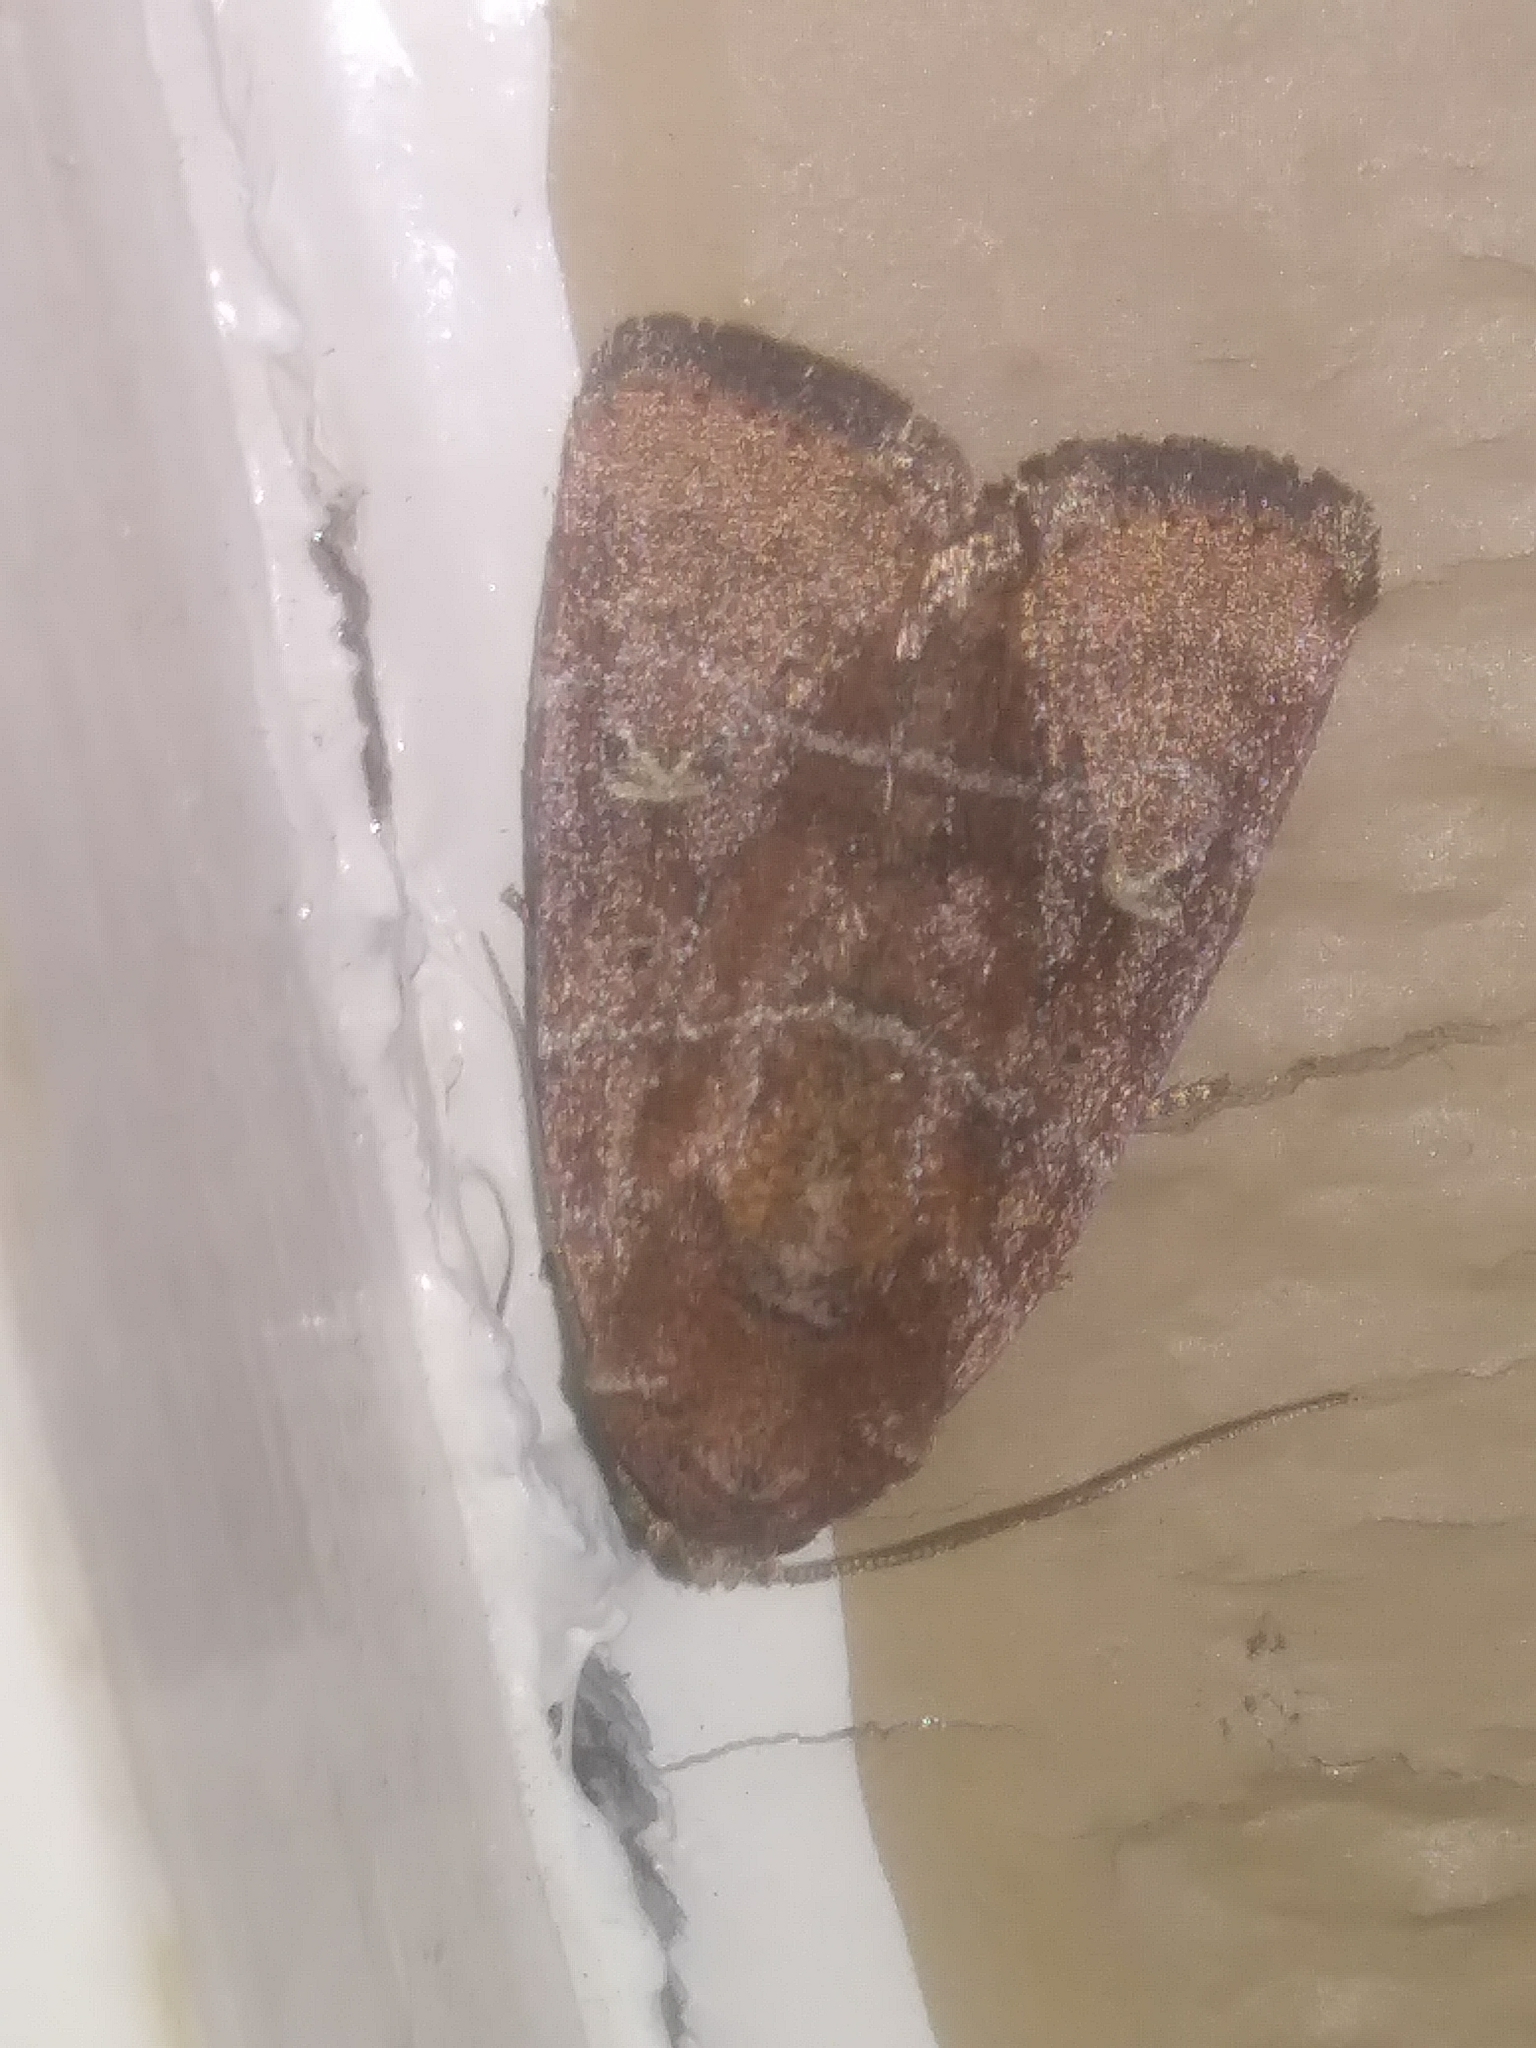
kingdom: Animalia
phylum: Arthropoda
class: Insecta
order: Lepidoptera
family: Noctuidae
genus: Elaphria
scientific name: Elaphria grata
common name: Grateful midget moth
